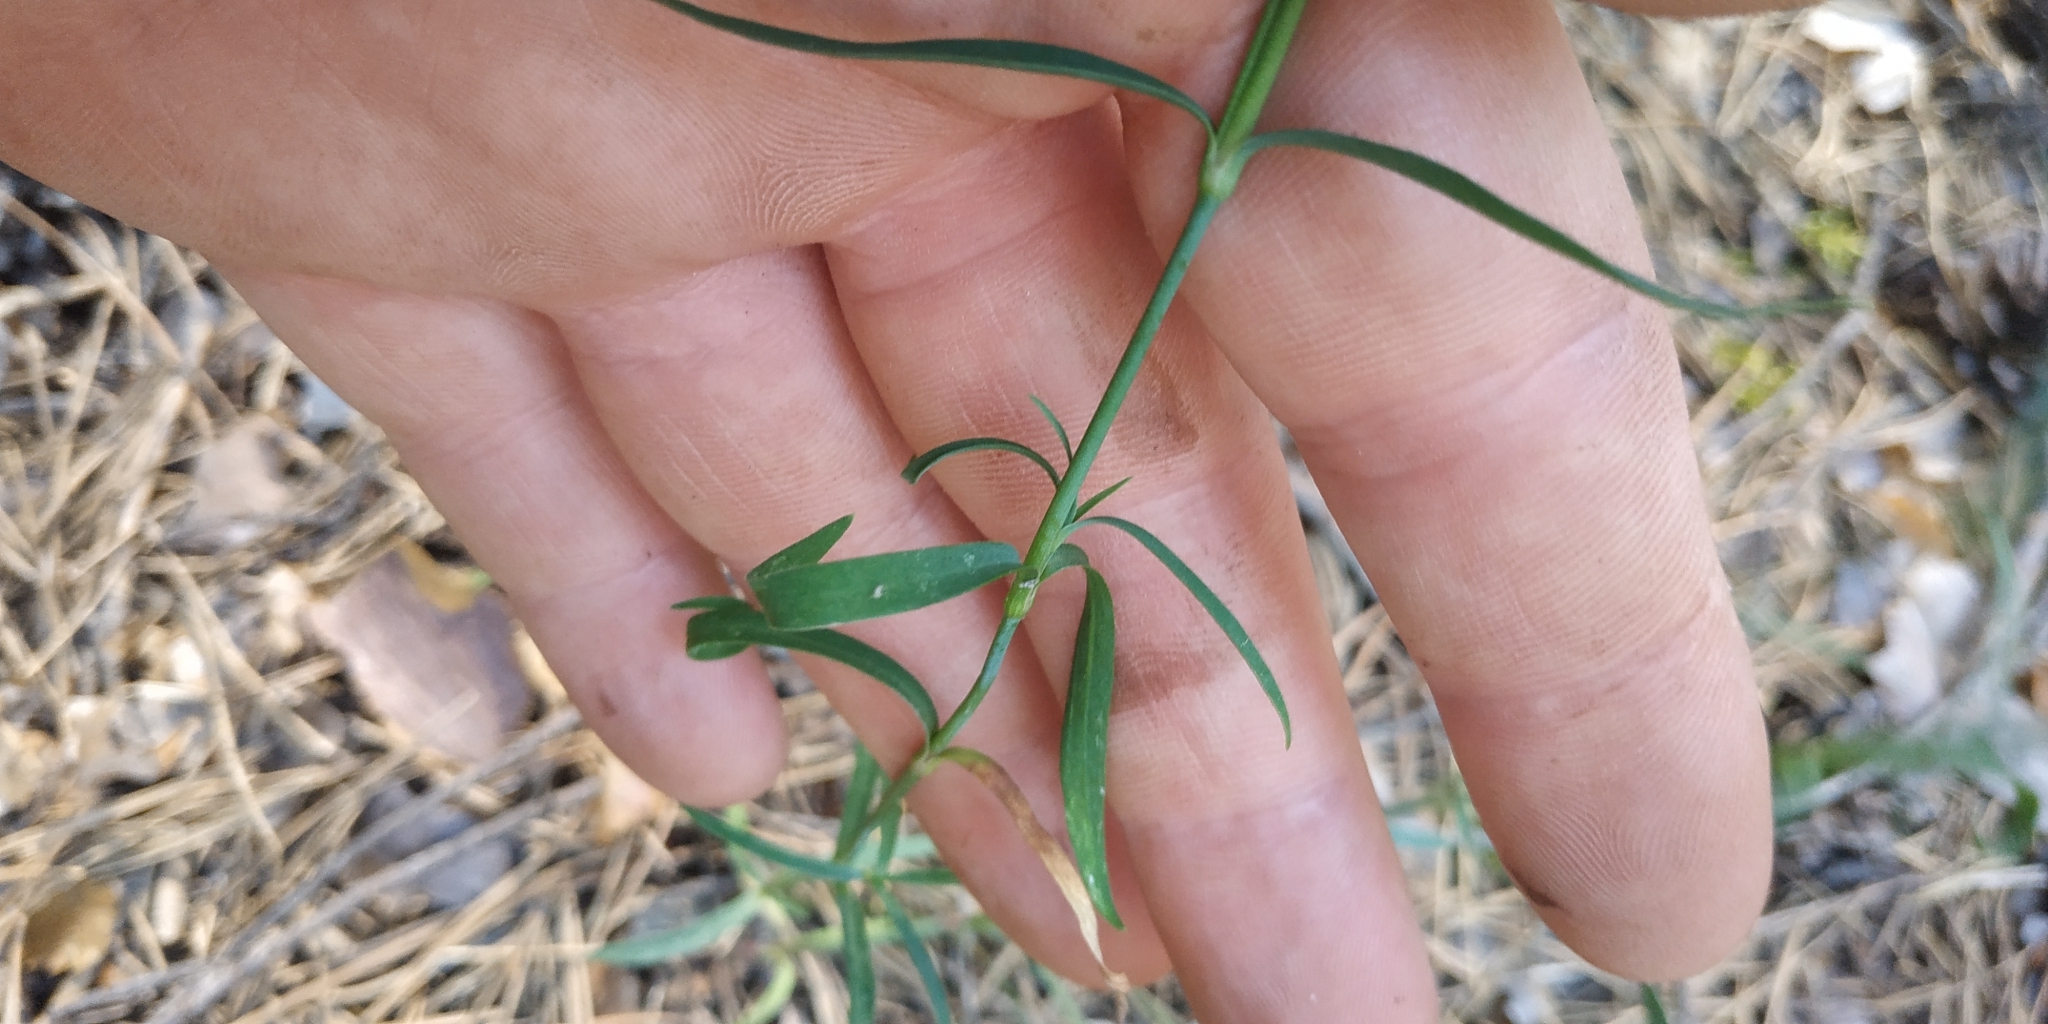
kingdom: Plantae
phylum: Tracheophyta
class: Magnoliopsida
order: Caryophyllales
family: Caryophyllaceae
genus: Dianthus
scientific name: Dianthus chinensis
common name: Rainbow pink
